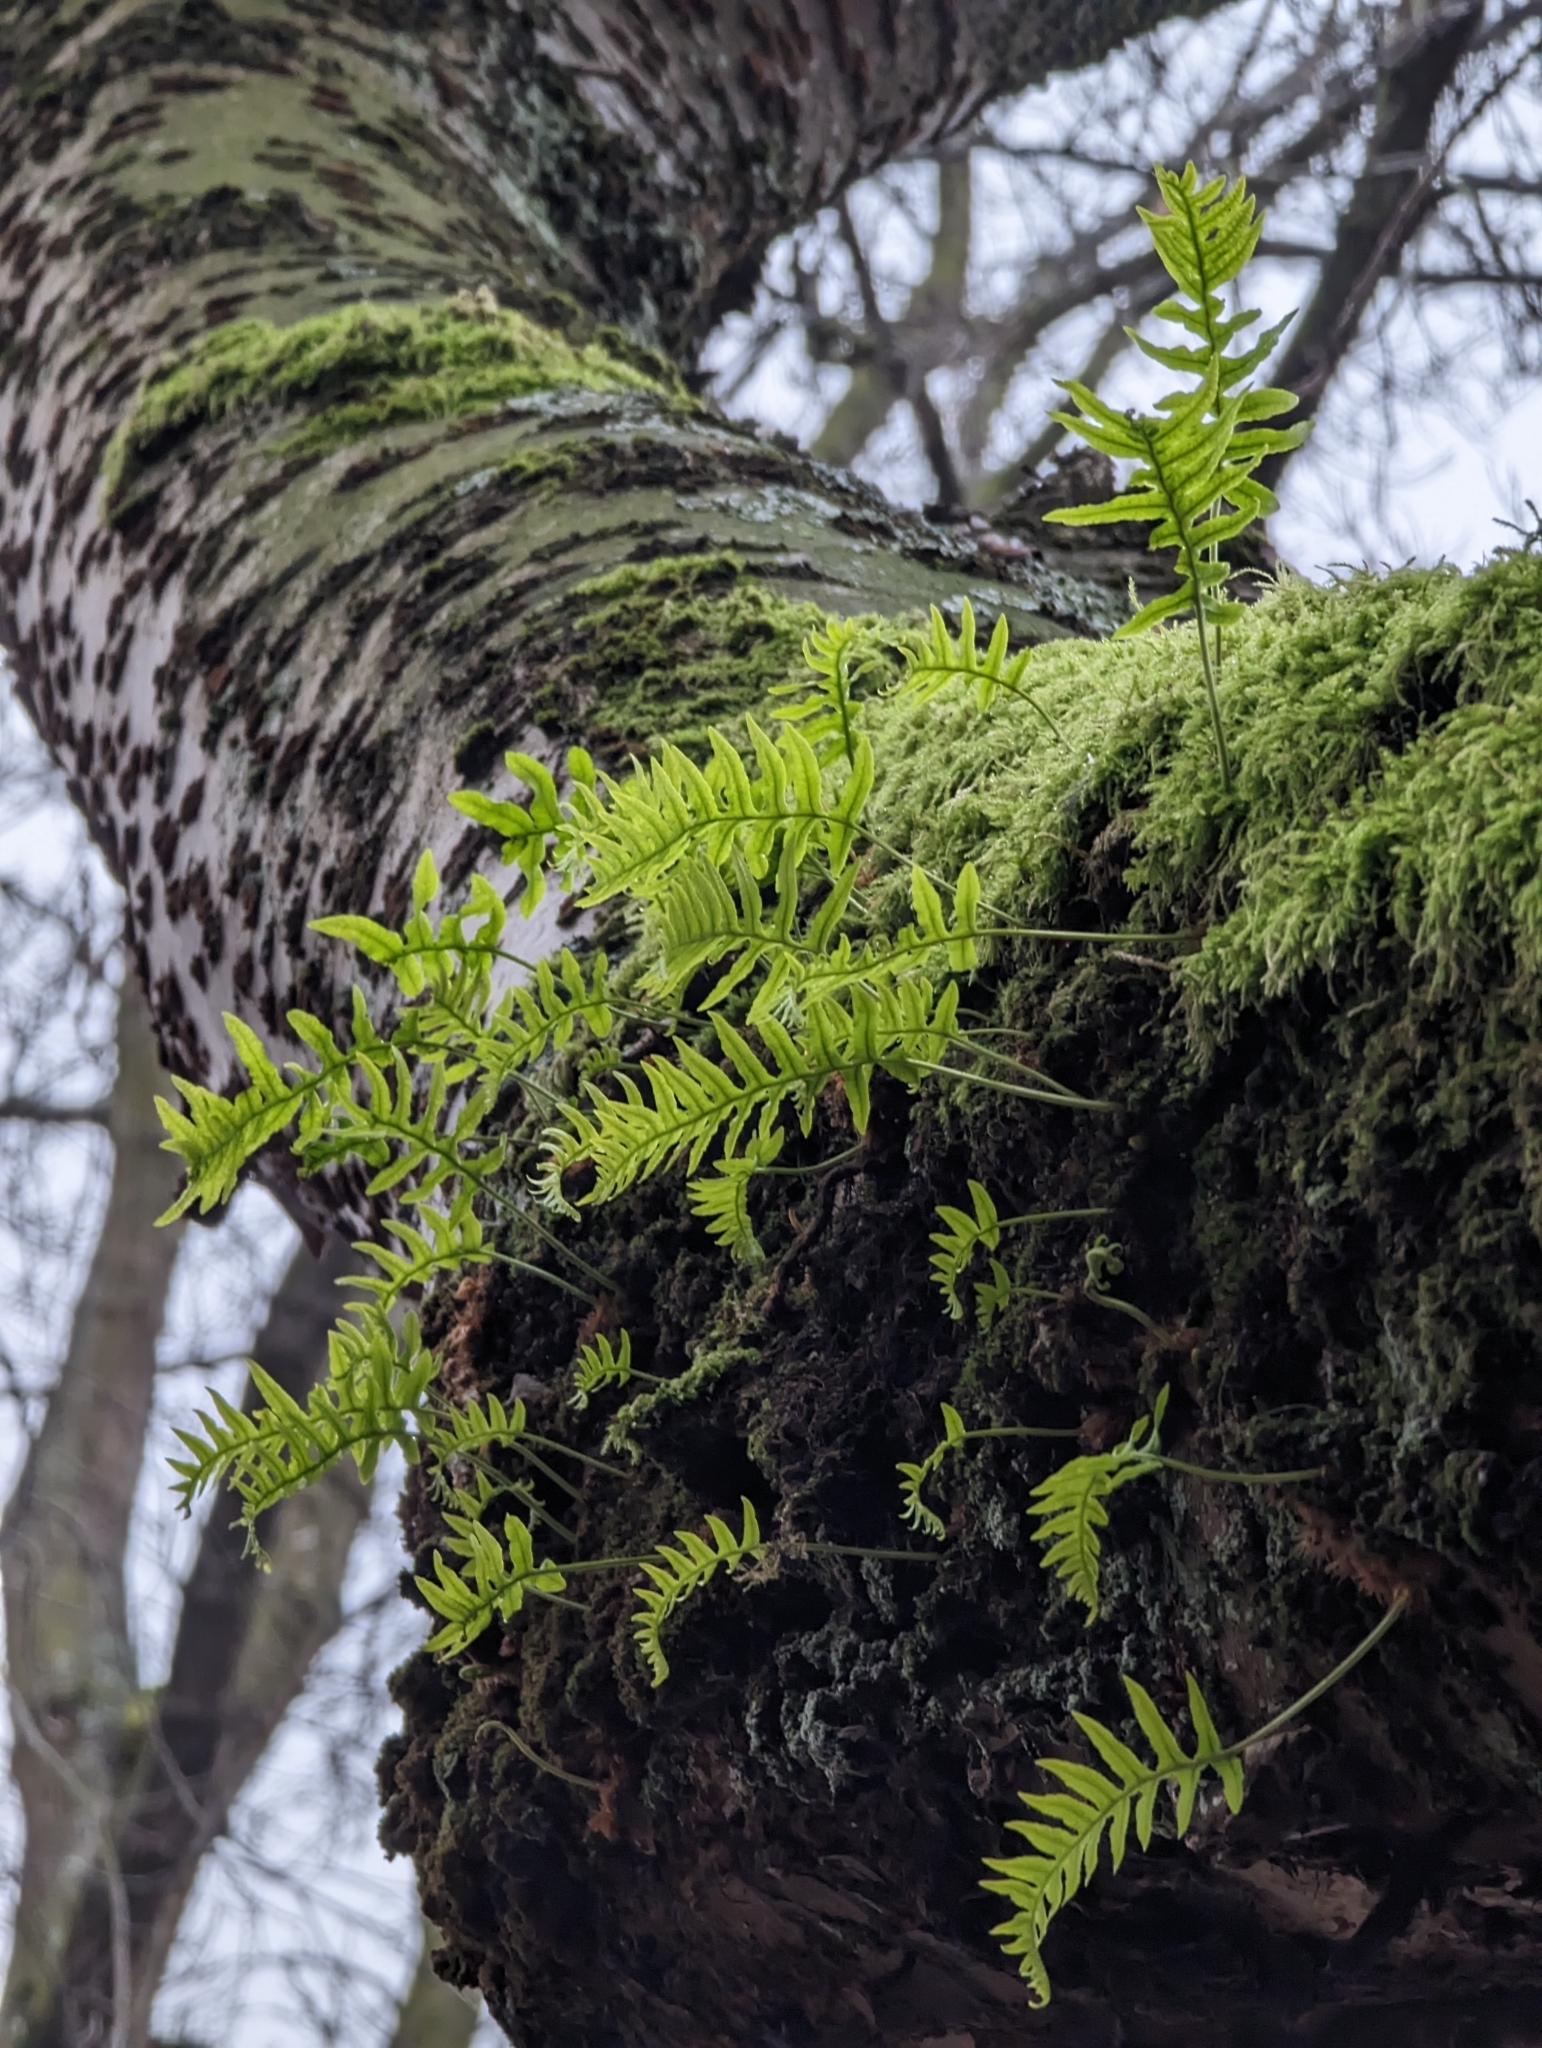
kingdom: Plantae
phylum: Tracheophyta
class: Polypodiopsida
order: Polypodiales
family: Polypodiaceae
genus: Polypodium
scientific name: Polypodium glycyrrhiza
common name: Licorice fern
